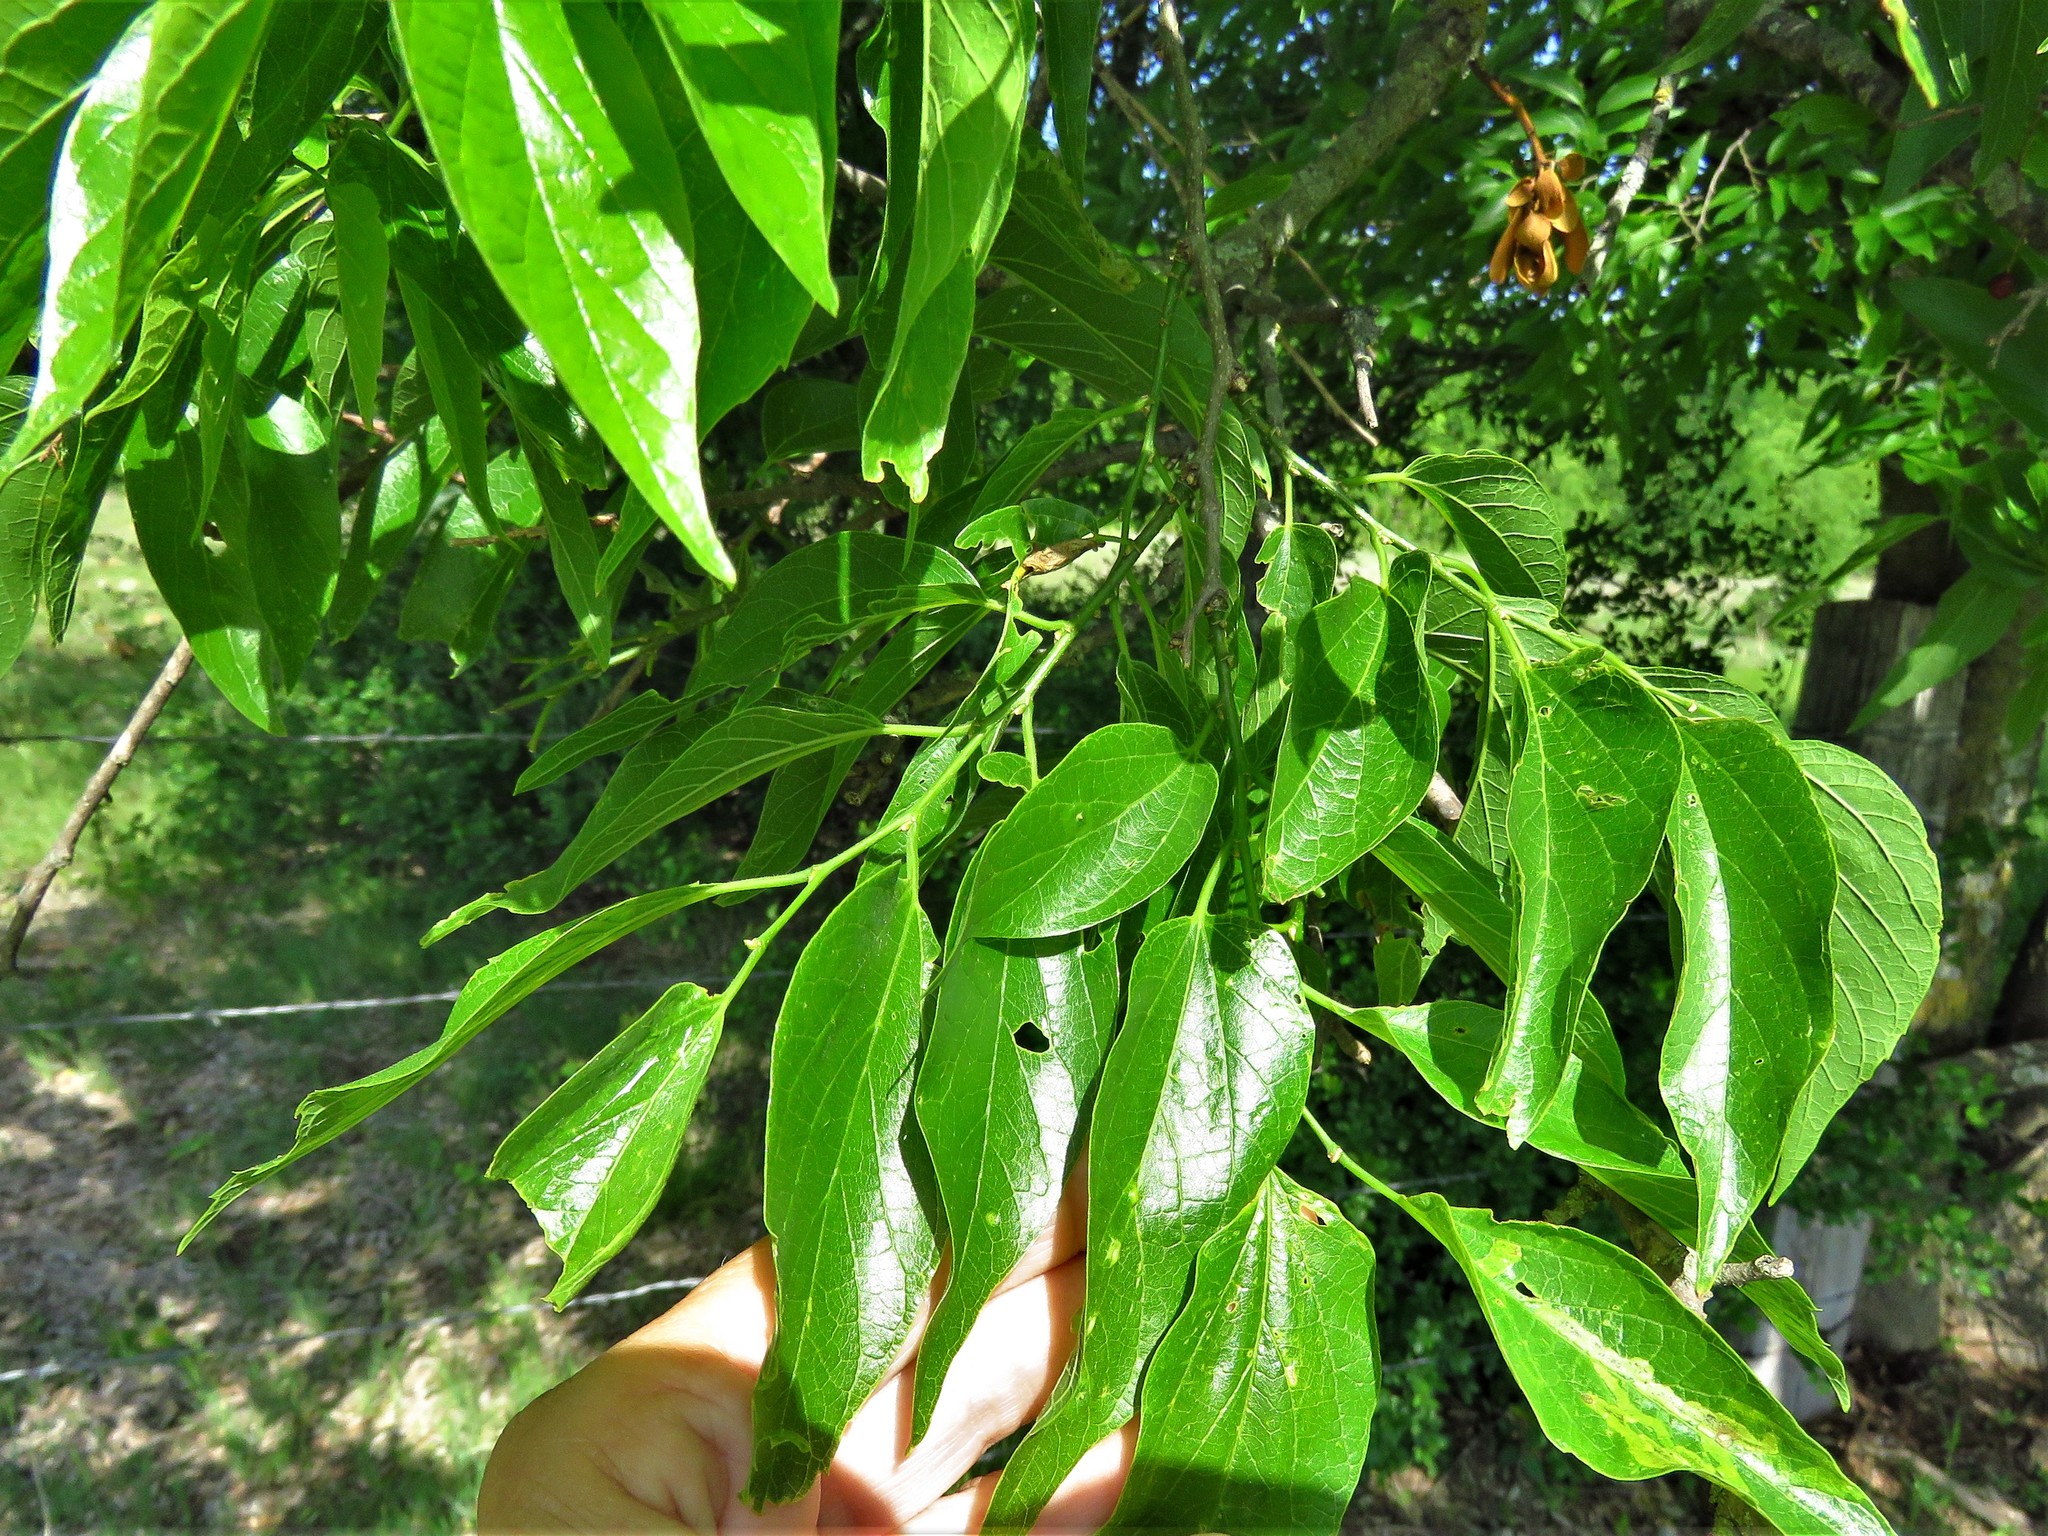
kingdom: Plantae
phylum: Tracheophyta
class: Magnoliopsida
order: Rosales
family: Cannabaceae
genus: Celtis
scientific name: Celtis laevigata
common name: Sugarberry
